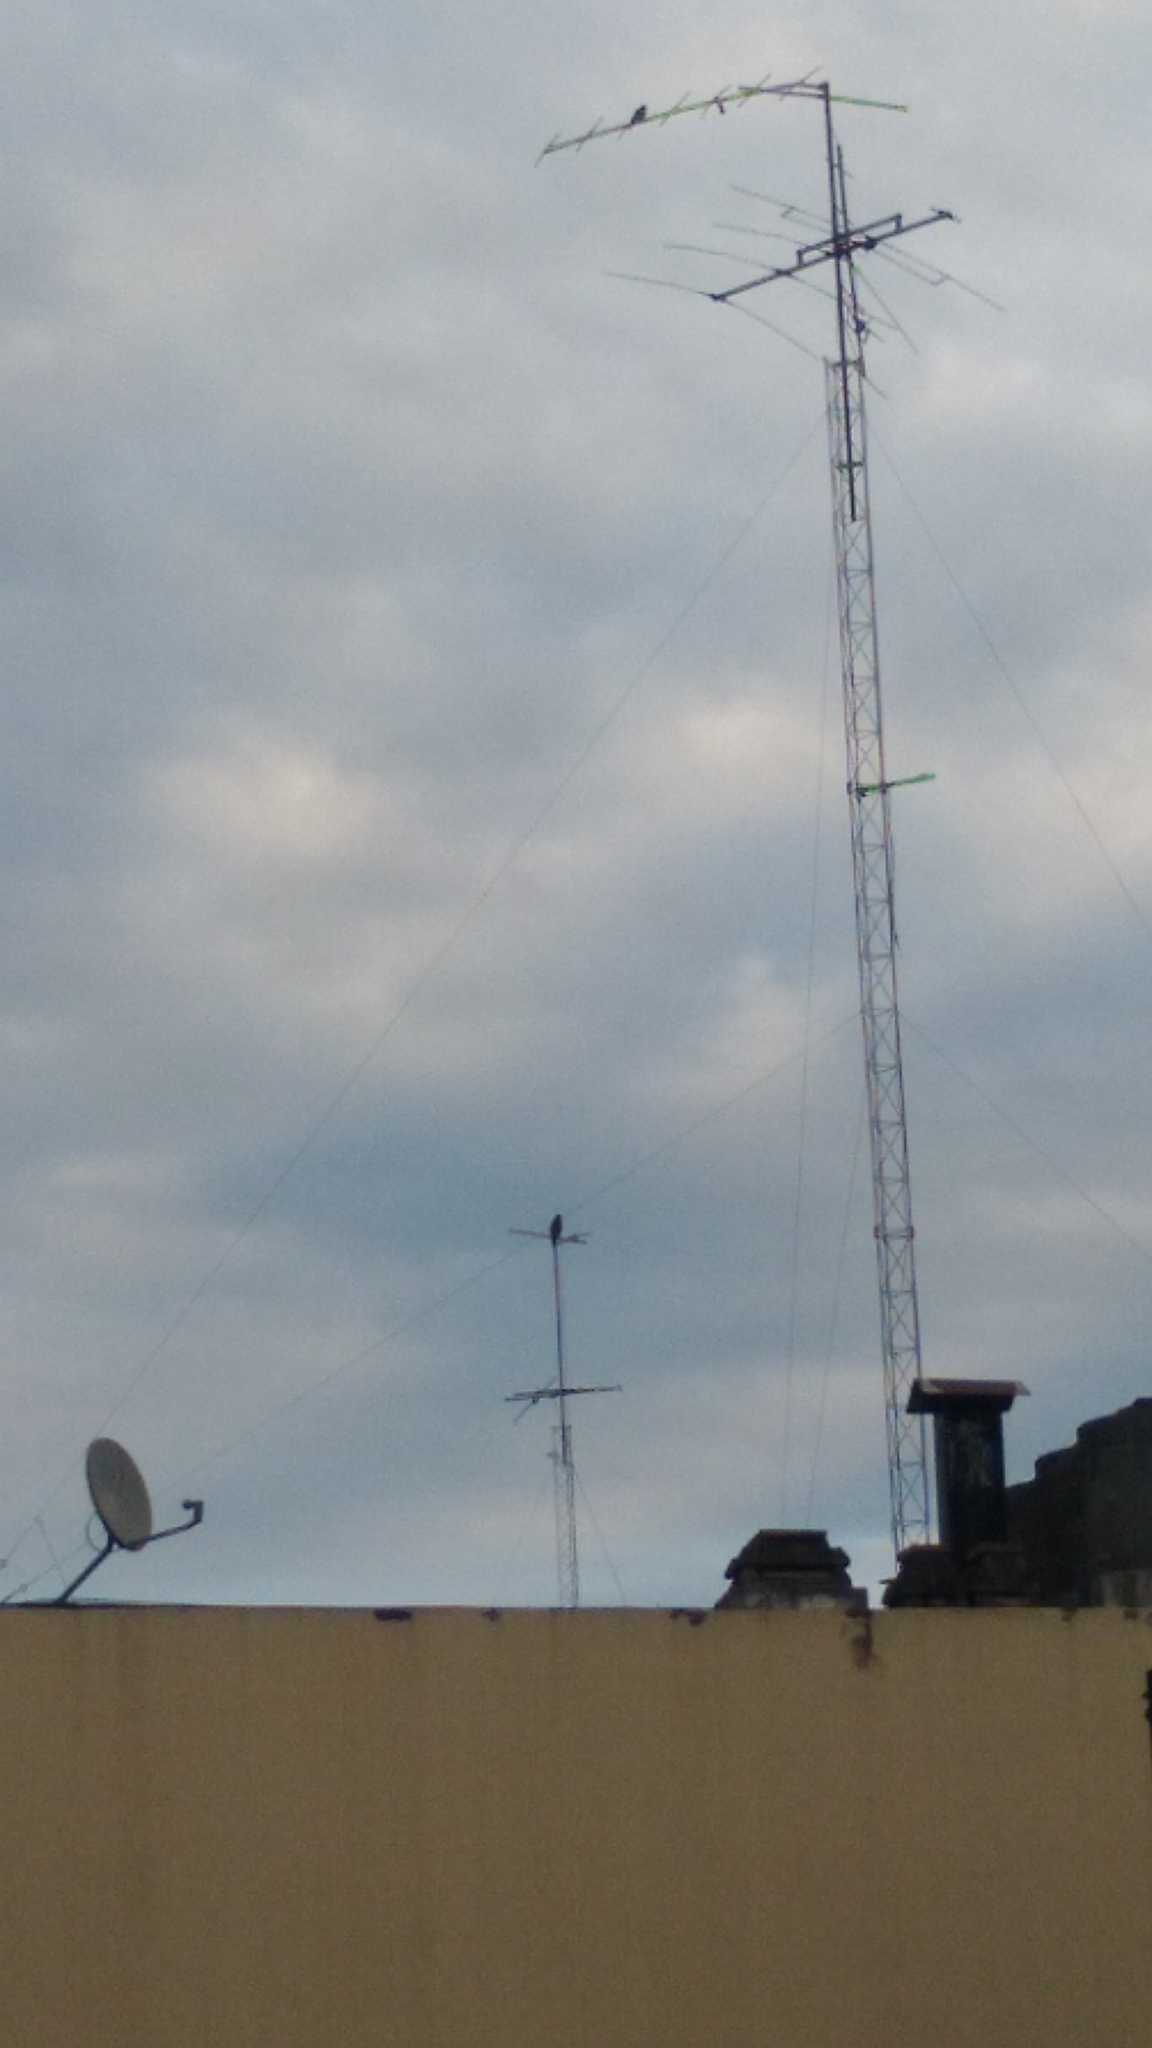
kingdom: Animalia
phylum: Chordata
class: Aves
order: Accipitriformes
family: Accipitridae
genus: Parabuteo
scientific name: Parabuteo unicinctus
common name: Harris's hawk
